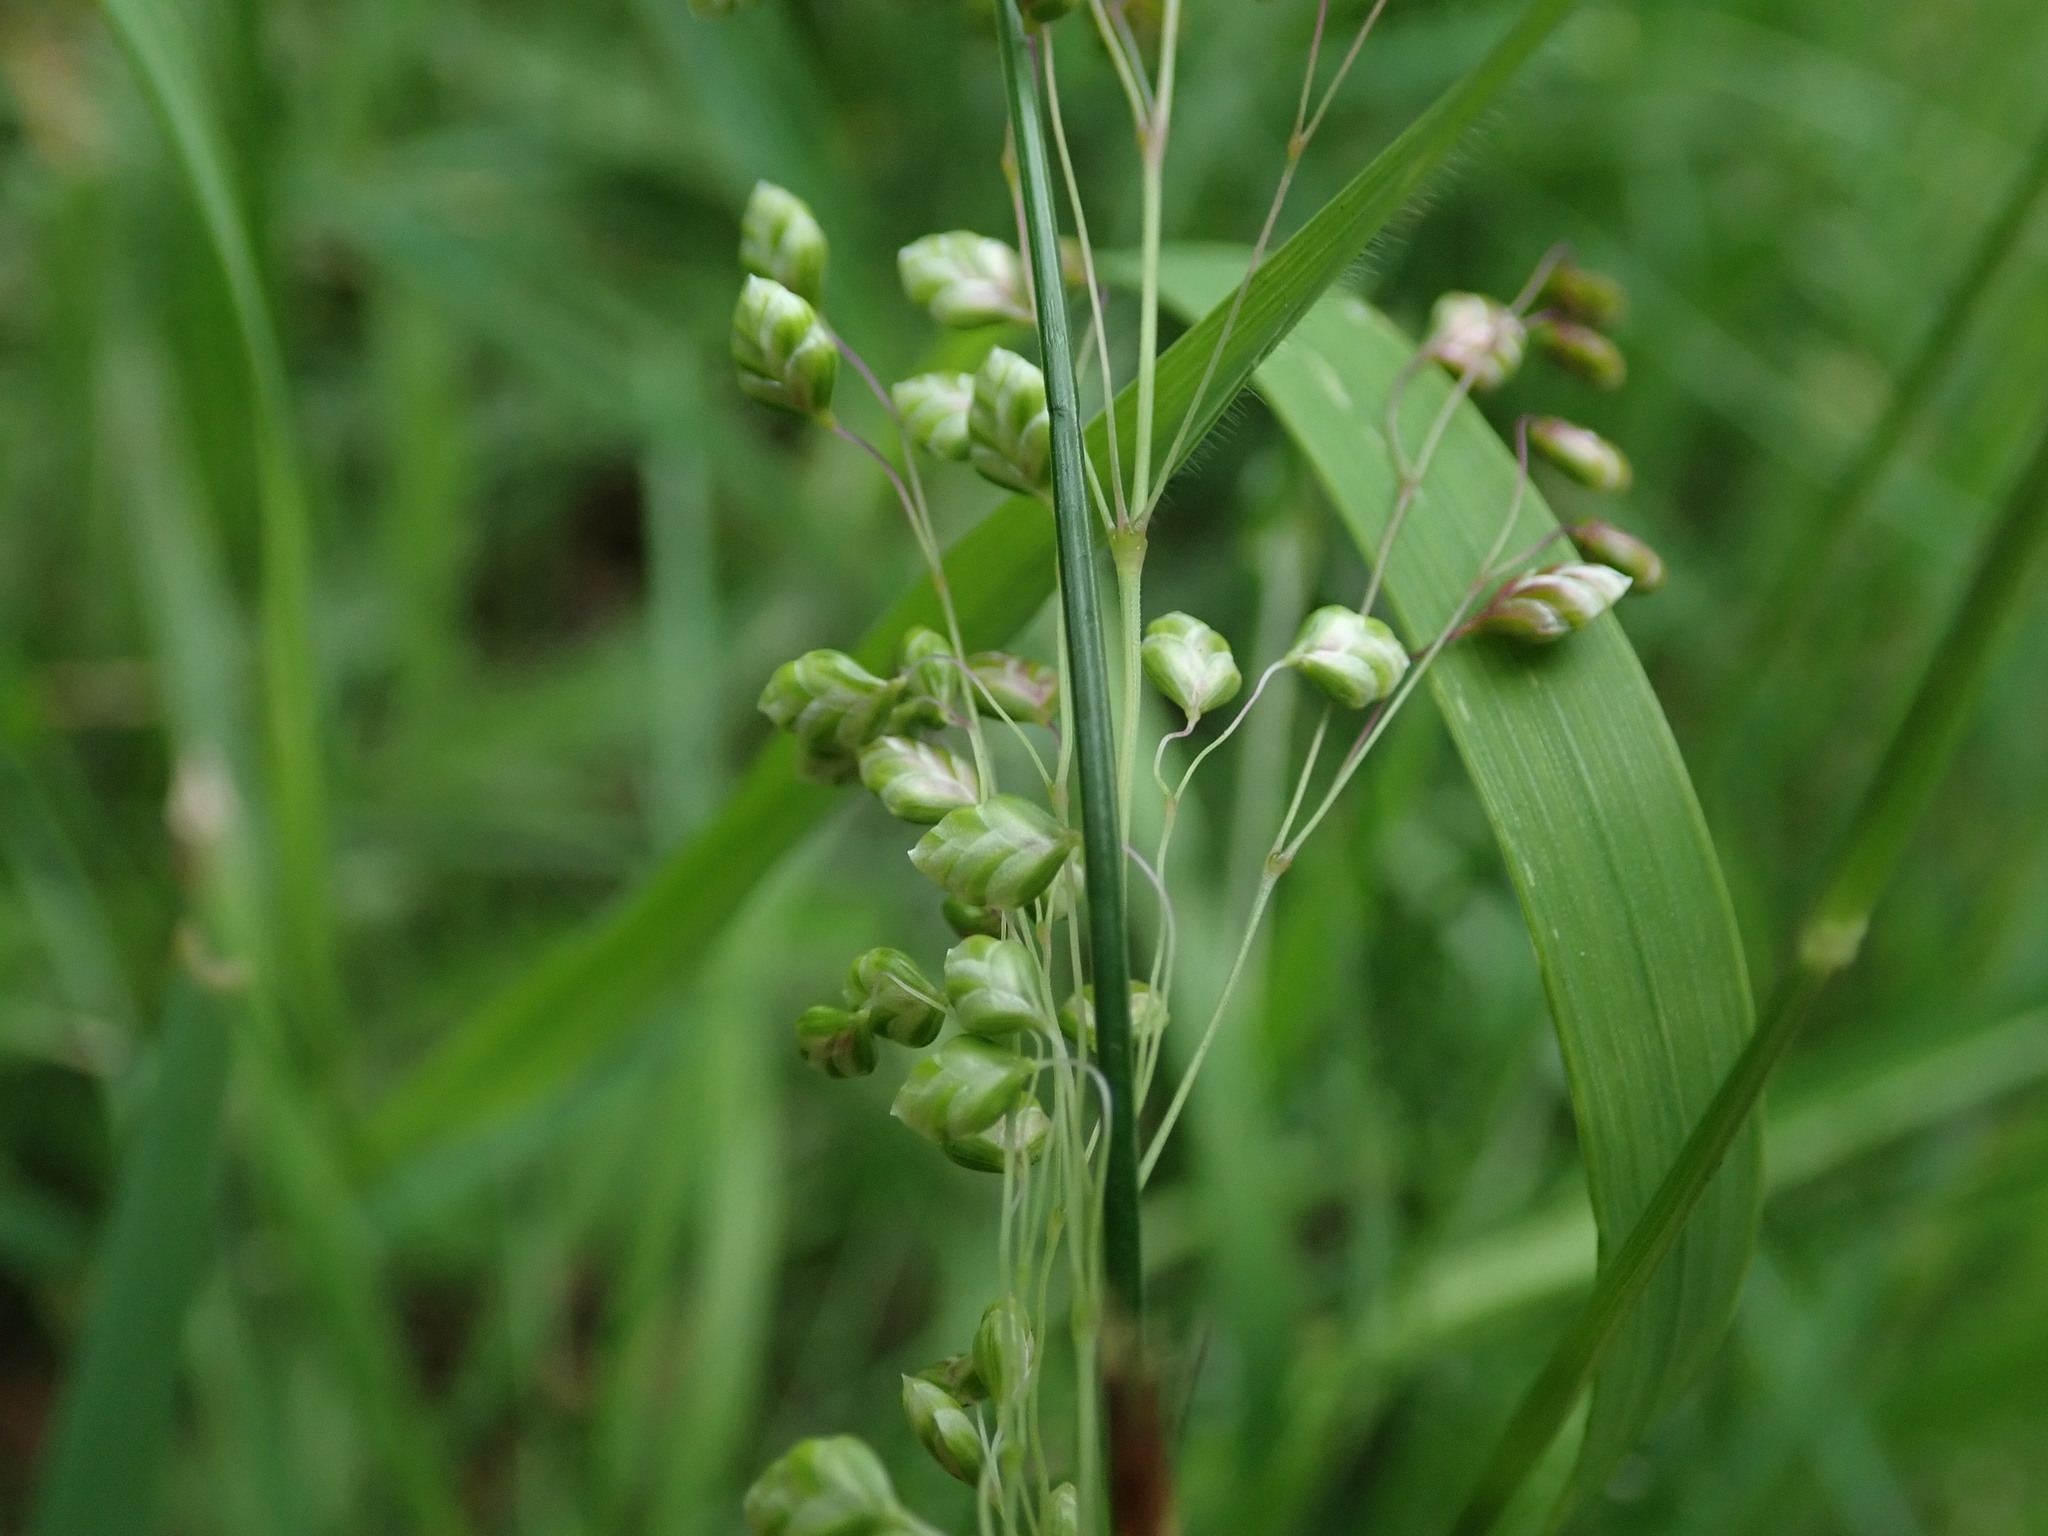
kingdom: Plantae
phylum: Tracheophyta
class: Liliopsida
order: Poales
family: Poaceae
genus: Briza
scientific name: Briza media
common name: Quaking grass
